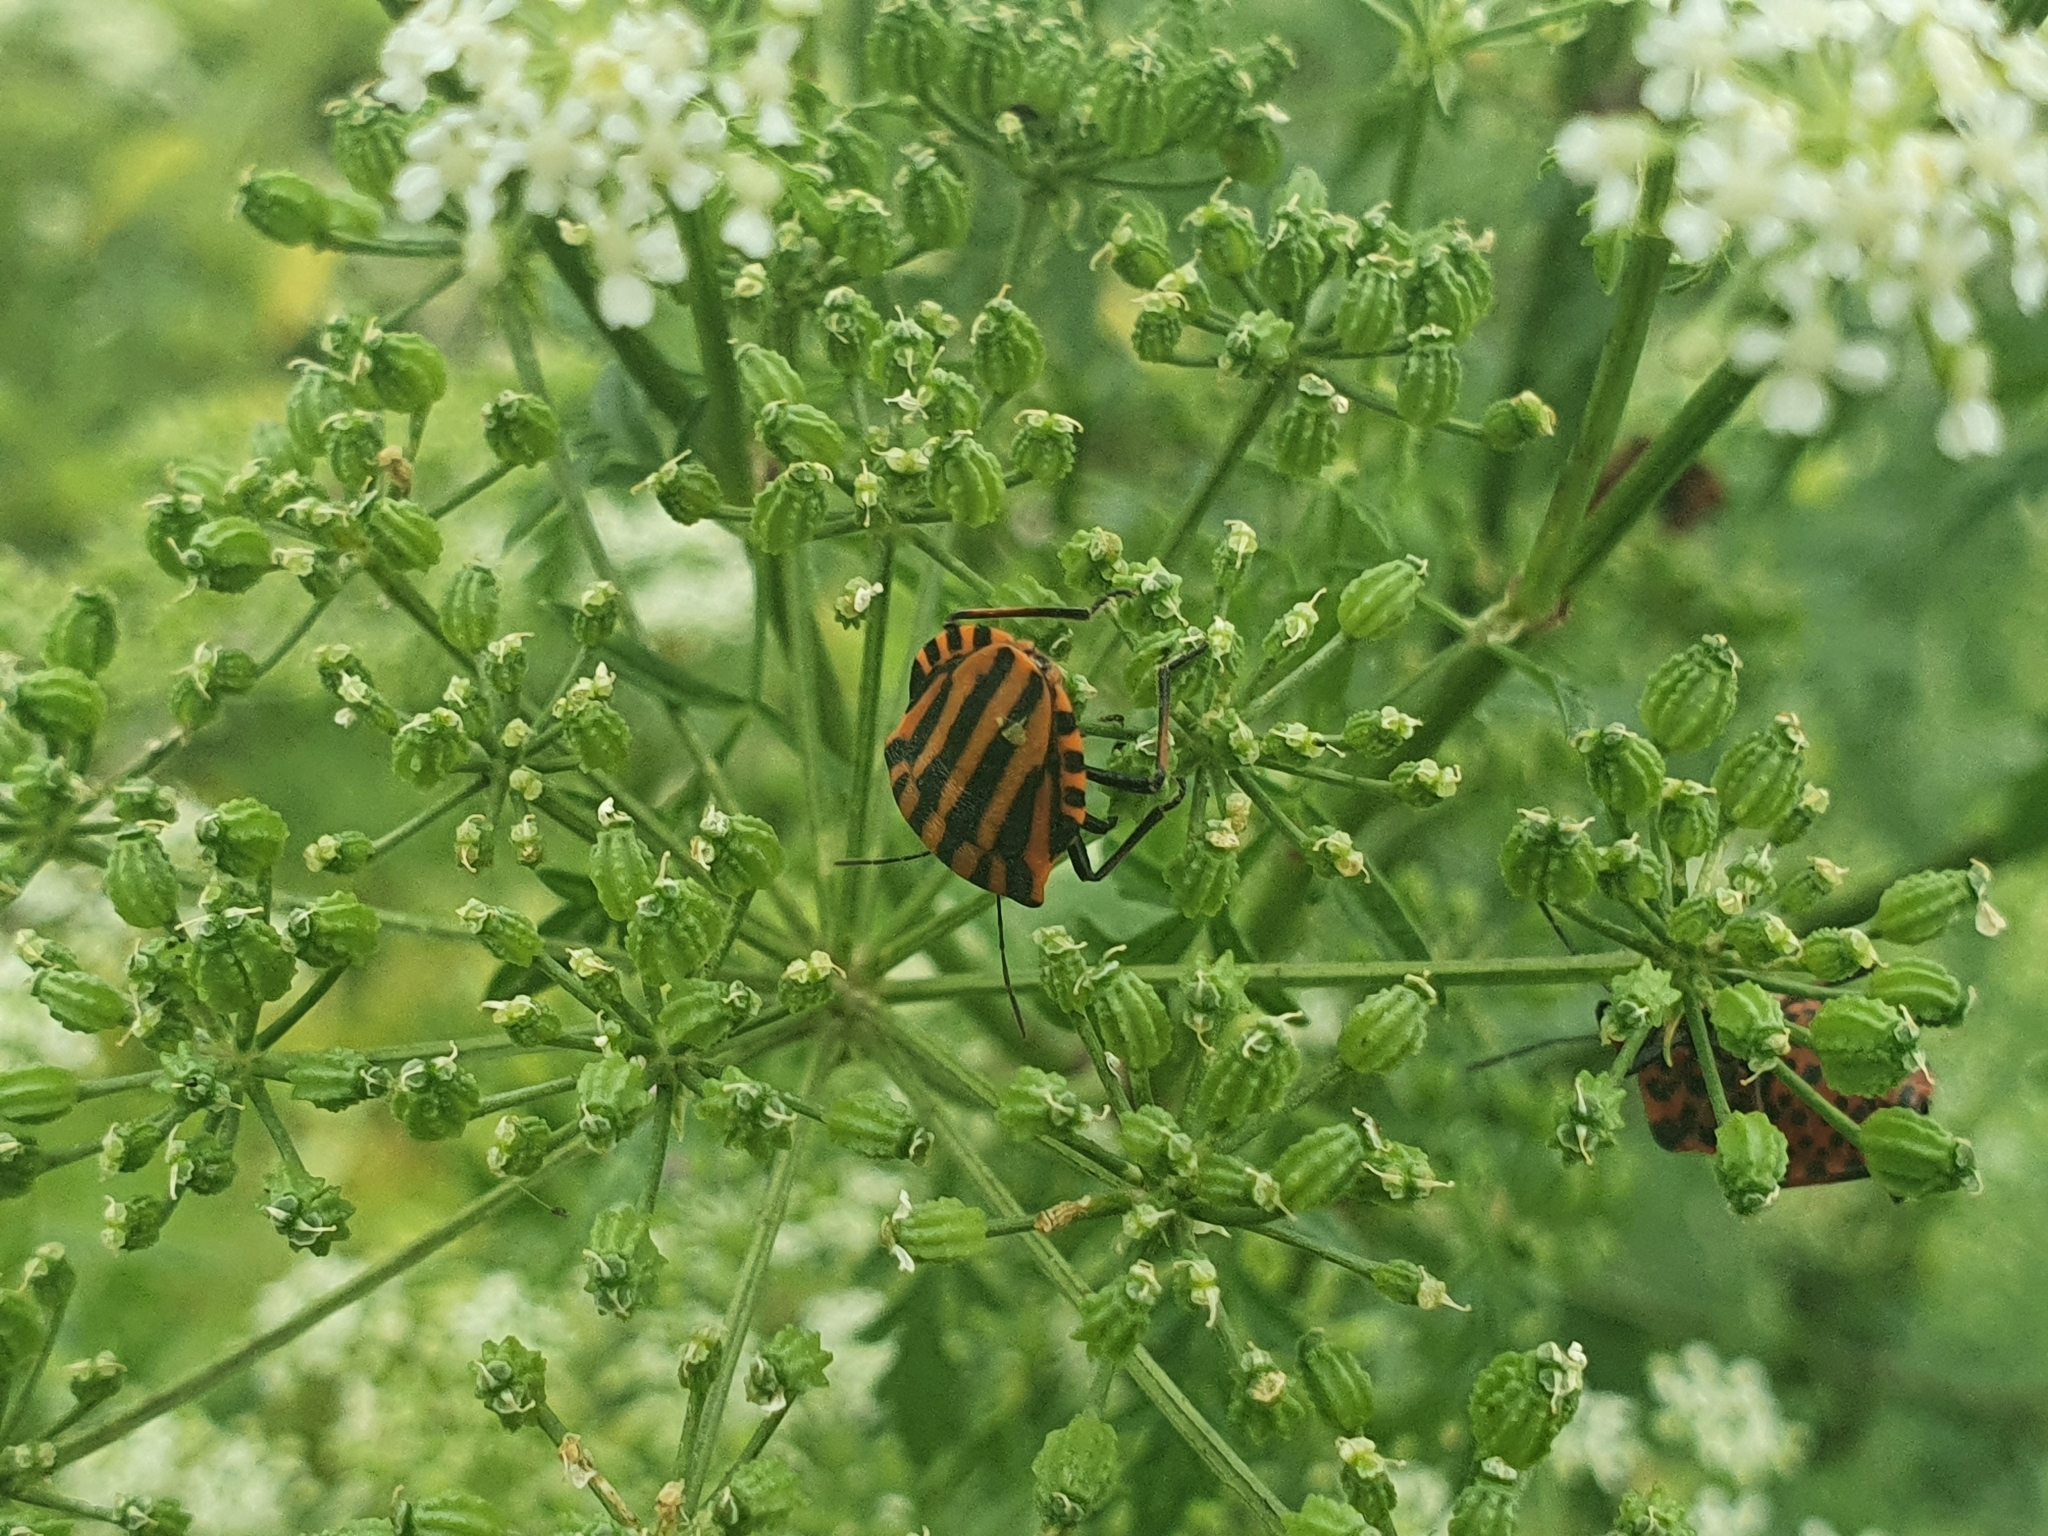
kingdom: Animalia
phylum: Arthropoda
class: Insecta
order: Hemiptera
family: Pentatomidae
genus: Graphosoma
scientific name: Graphosoma italicum
